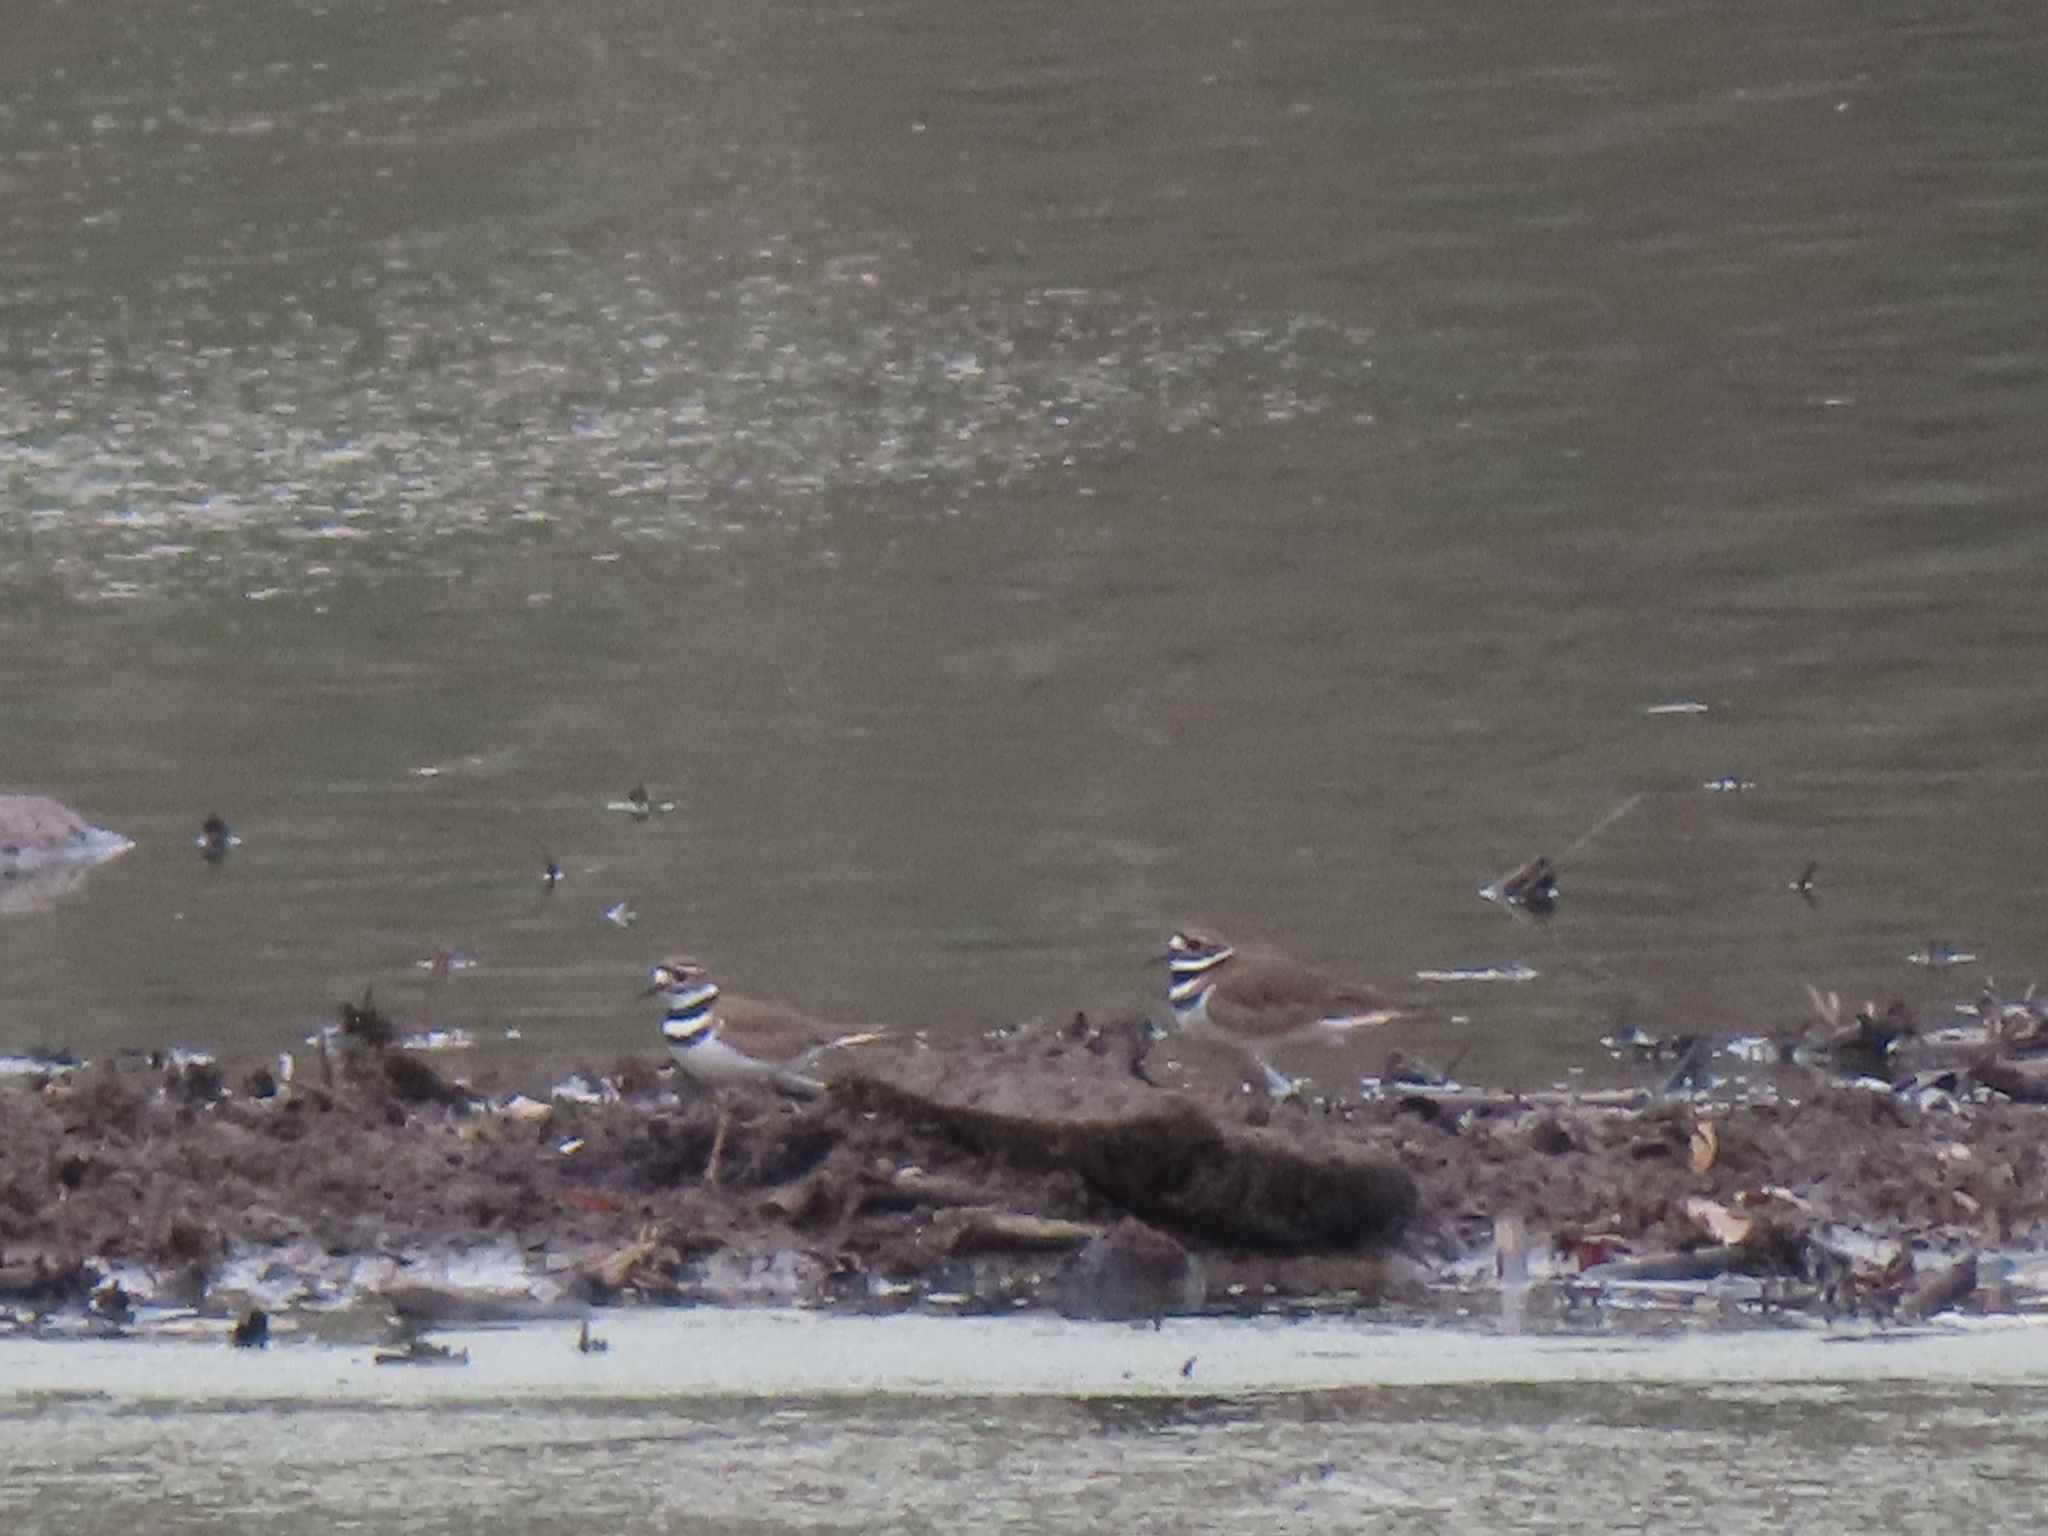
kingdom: Animalia
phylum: Chordata
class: Aves
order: Charadriiformes
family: Charadriidae
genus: Charadrius
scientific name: Charadrius vociferus
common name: Killdeer
